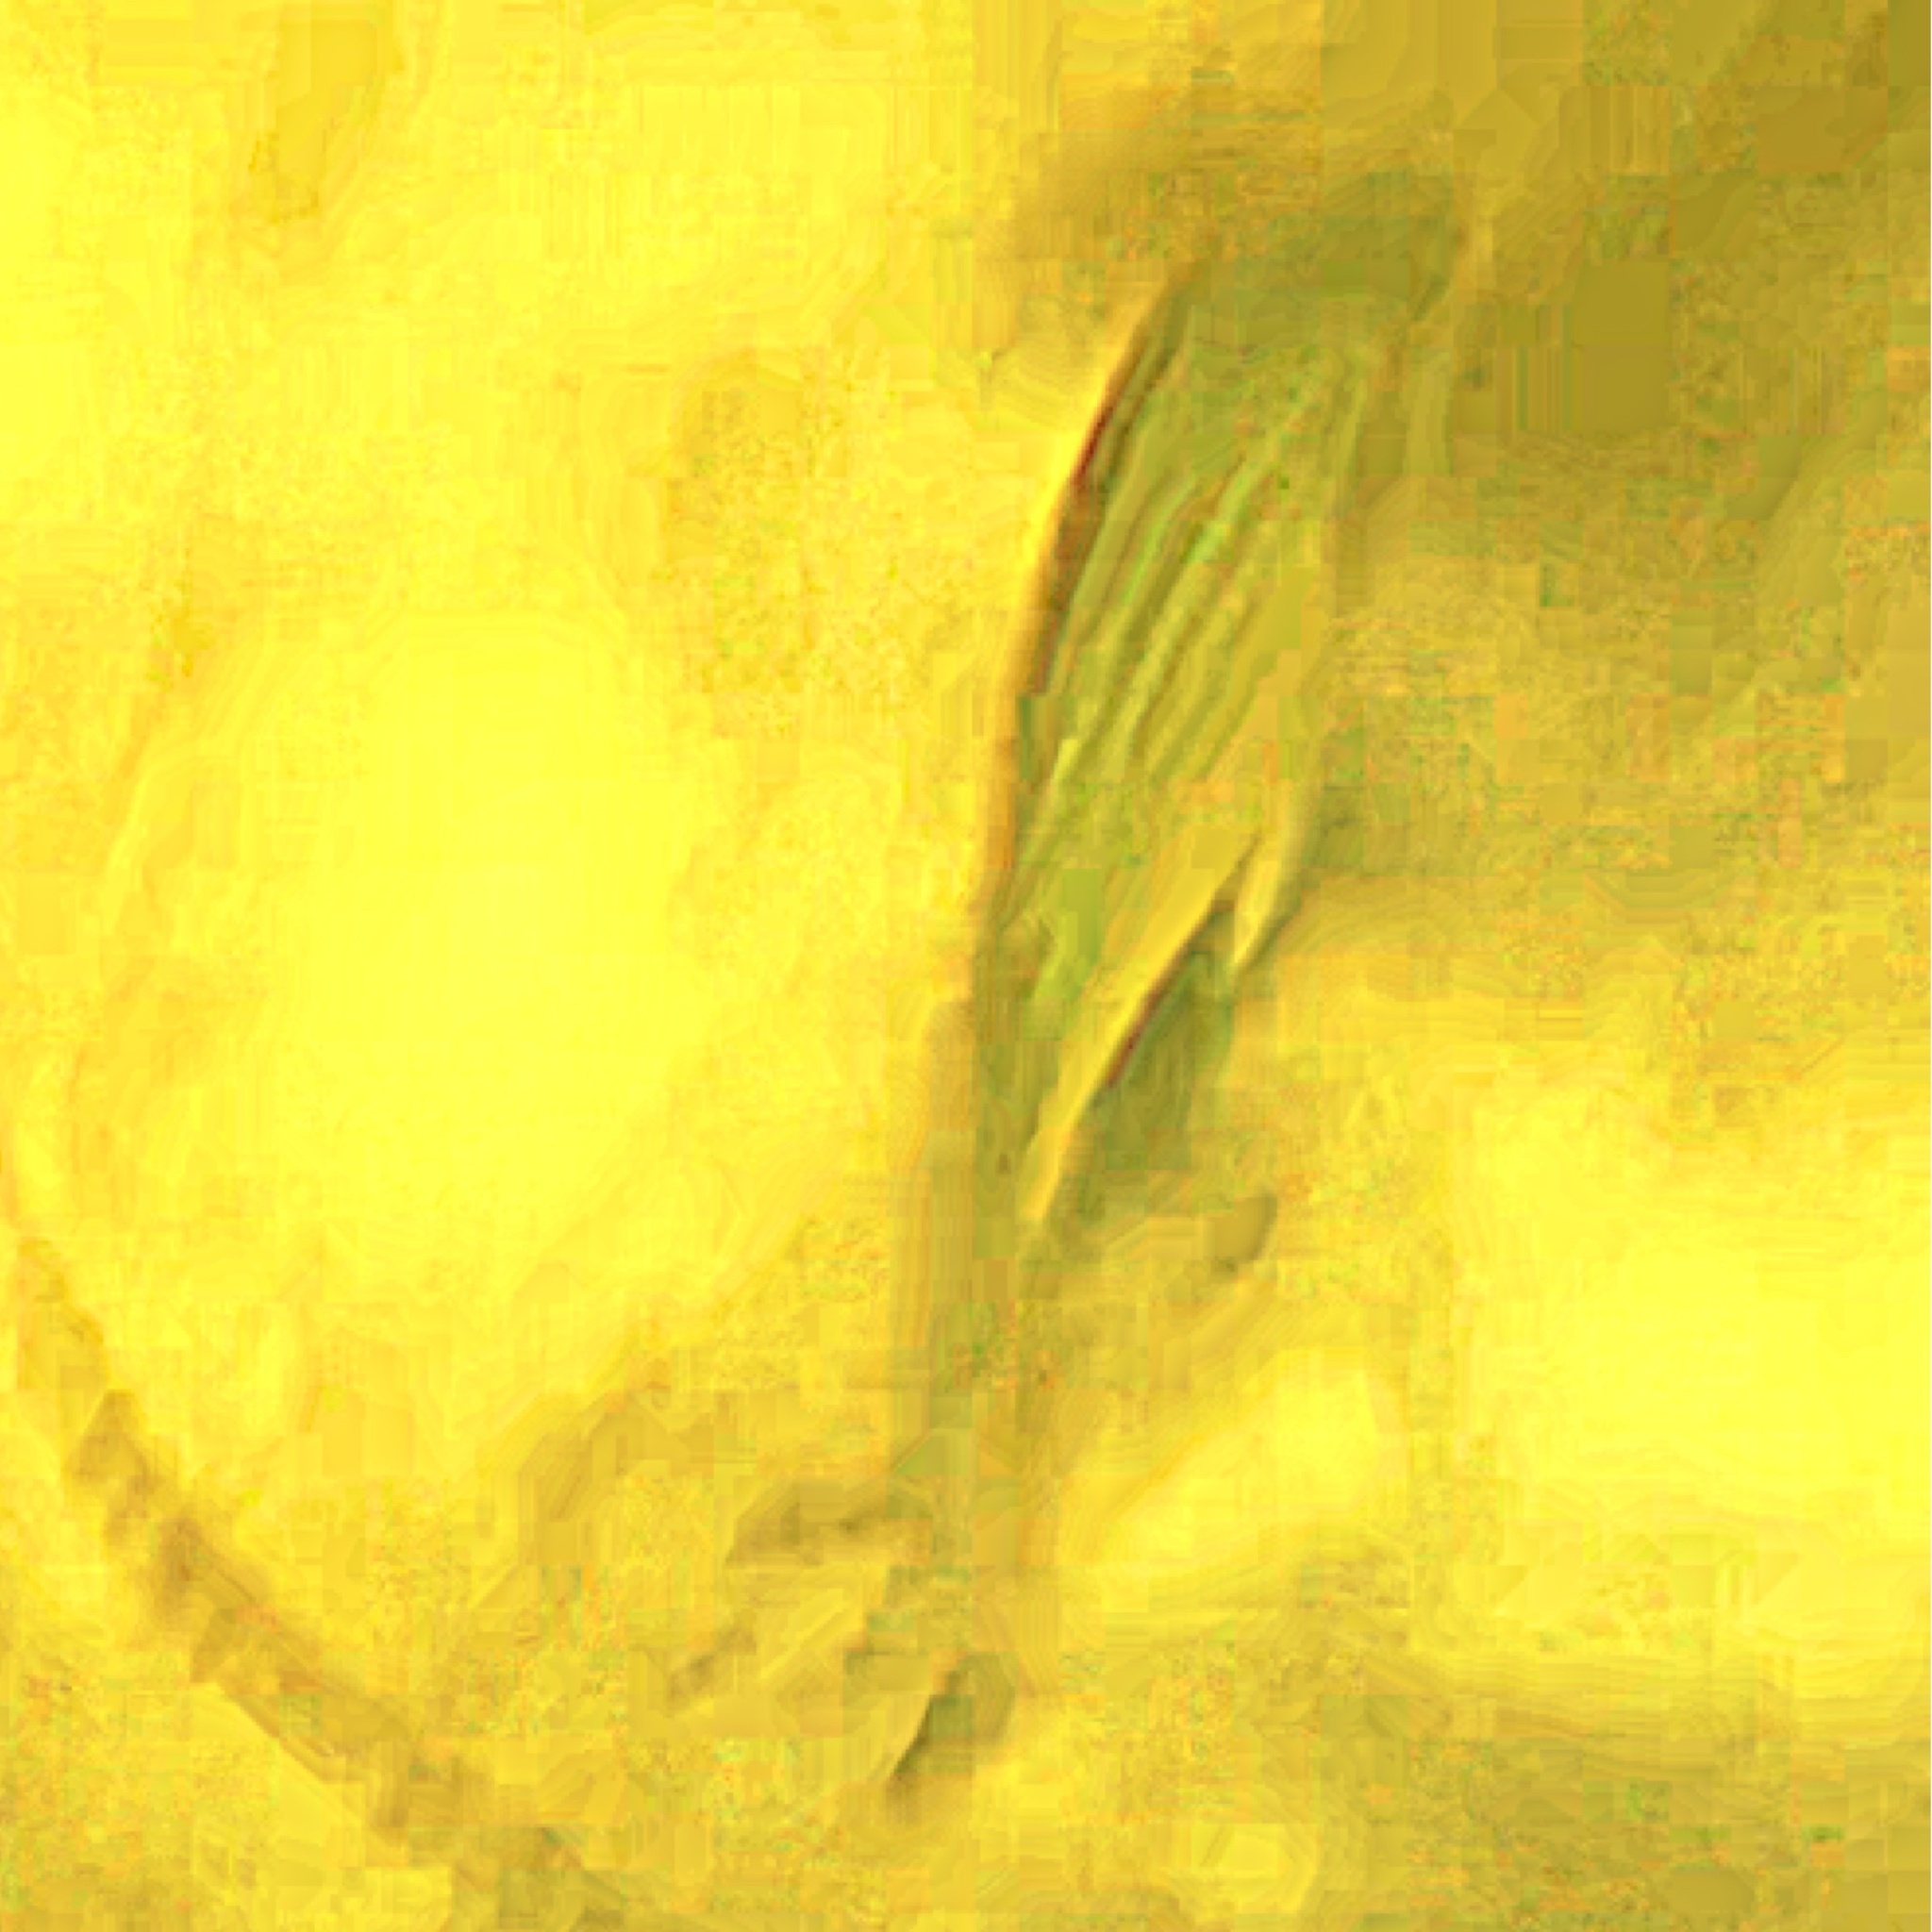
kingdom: Animalia
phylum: Chordata
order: Perciformes
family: Sparidae
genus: Lagodon
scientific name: Lagodon rhomboides
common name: Pinfish
